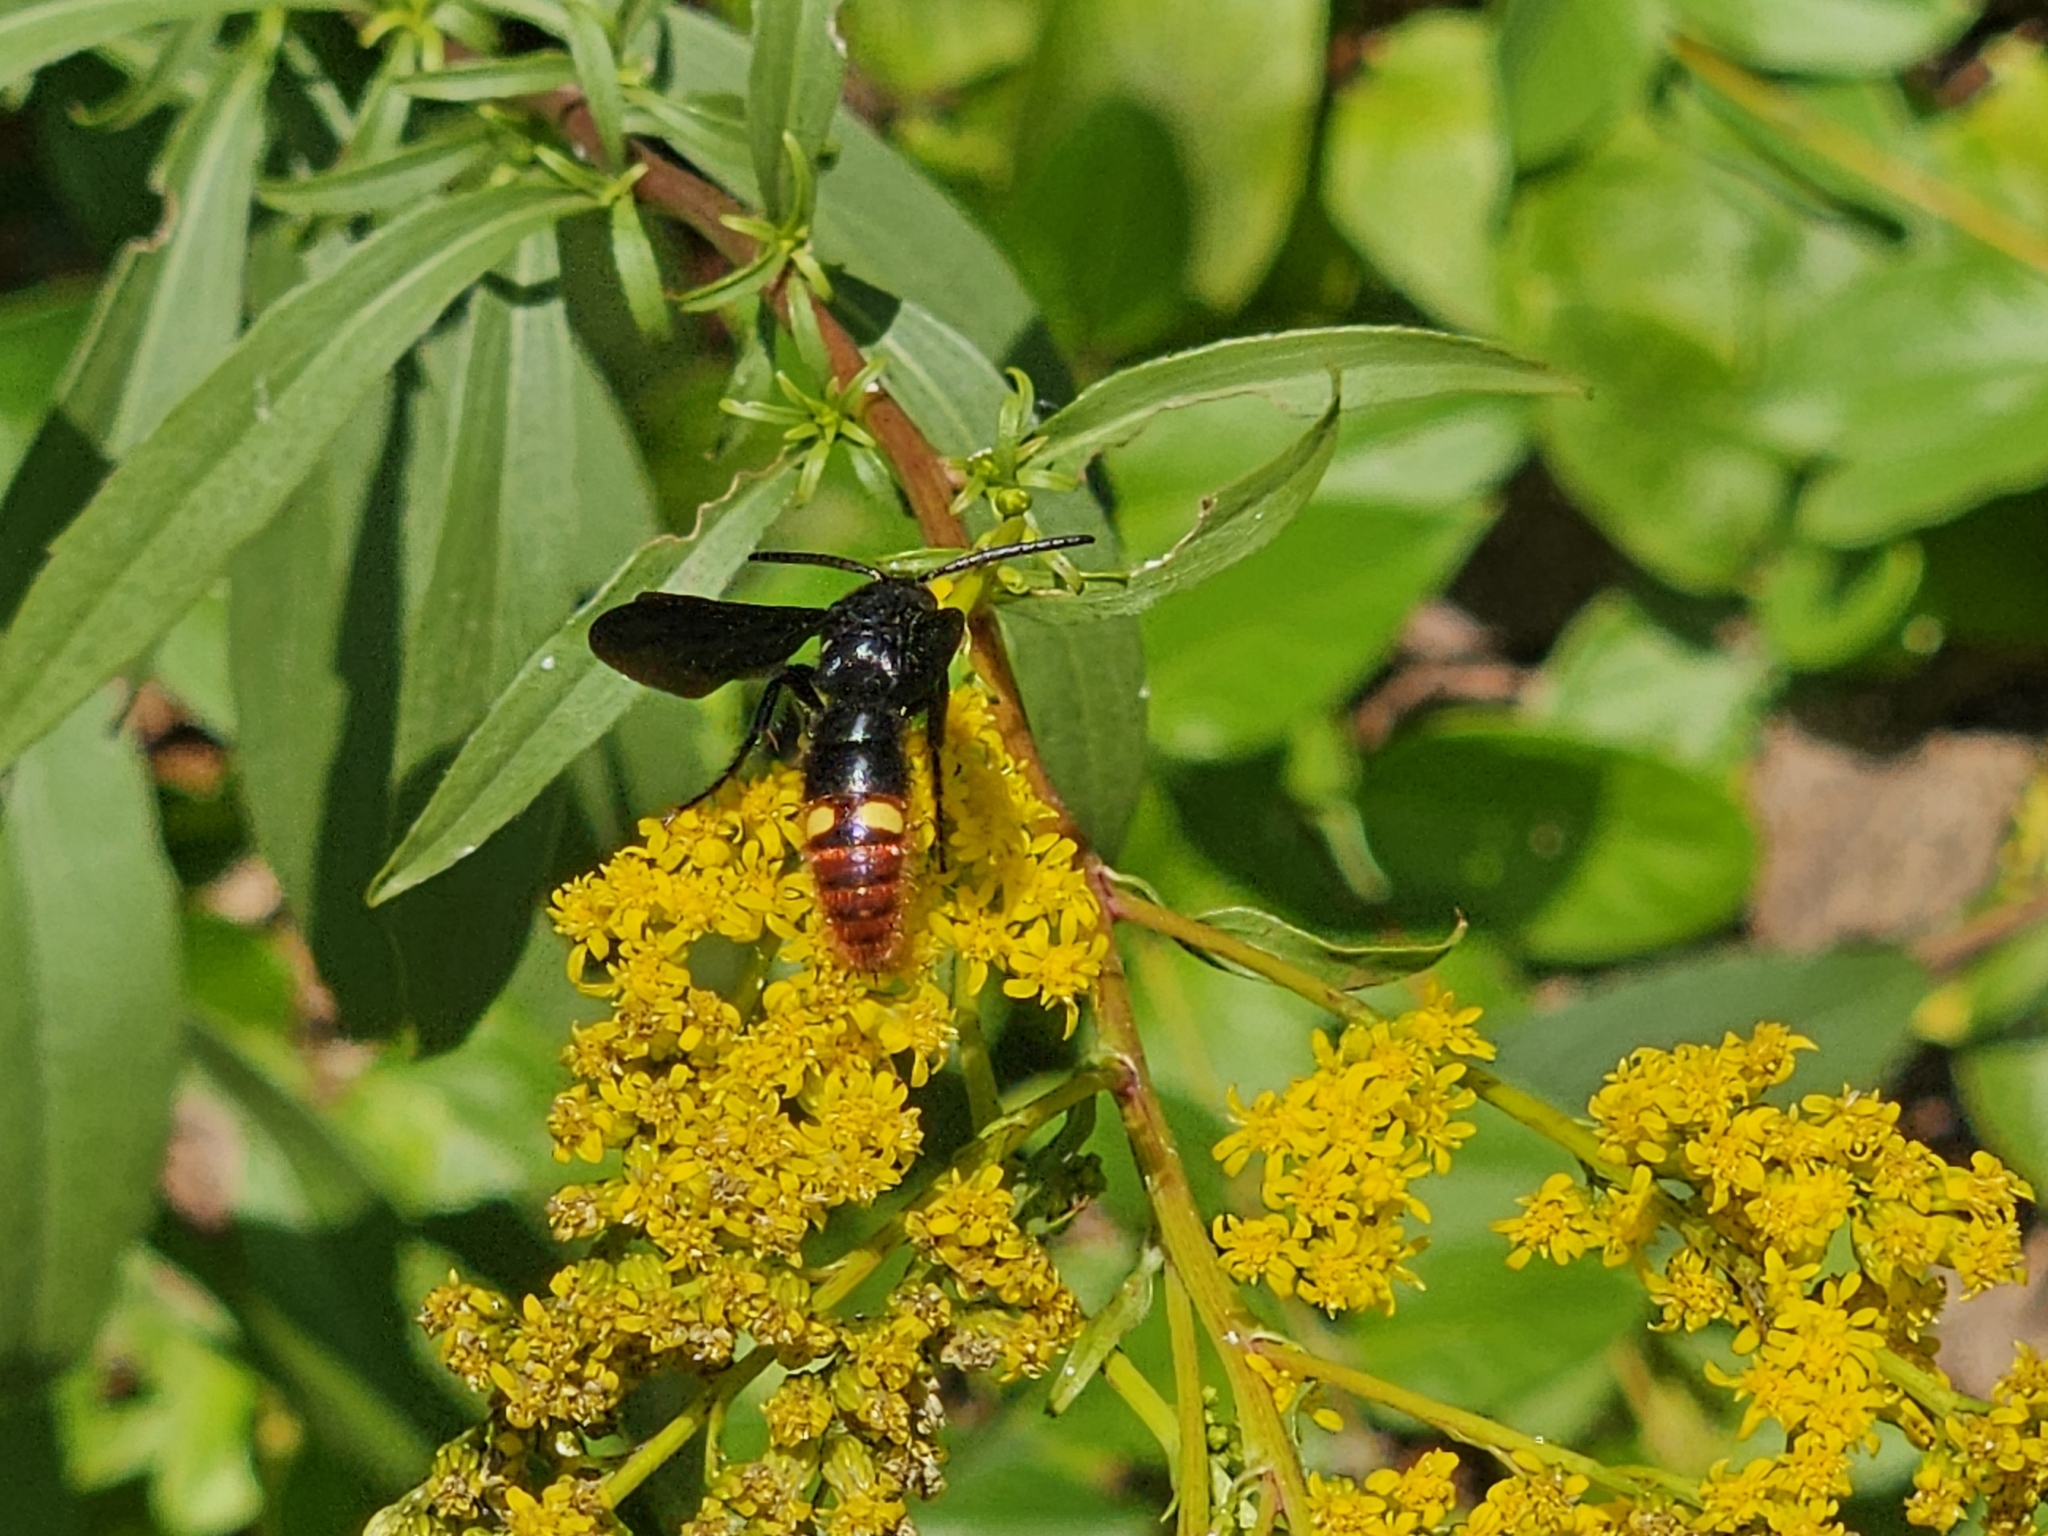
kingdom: Animalia
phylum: Arthropoda
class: Insecta
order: Hymenoptera
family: Scoliidae
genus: Scolia
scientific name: Scolia dubia
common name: Blue-winged scoliid wasp
